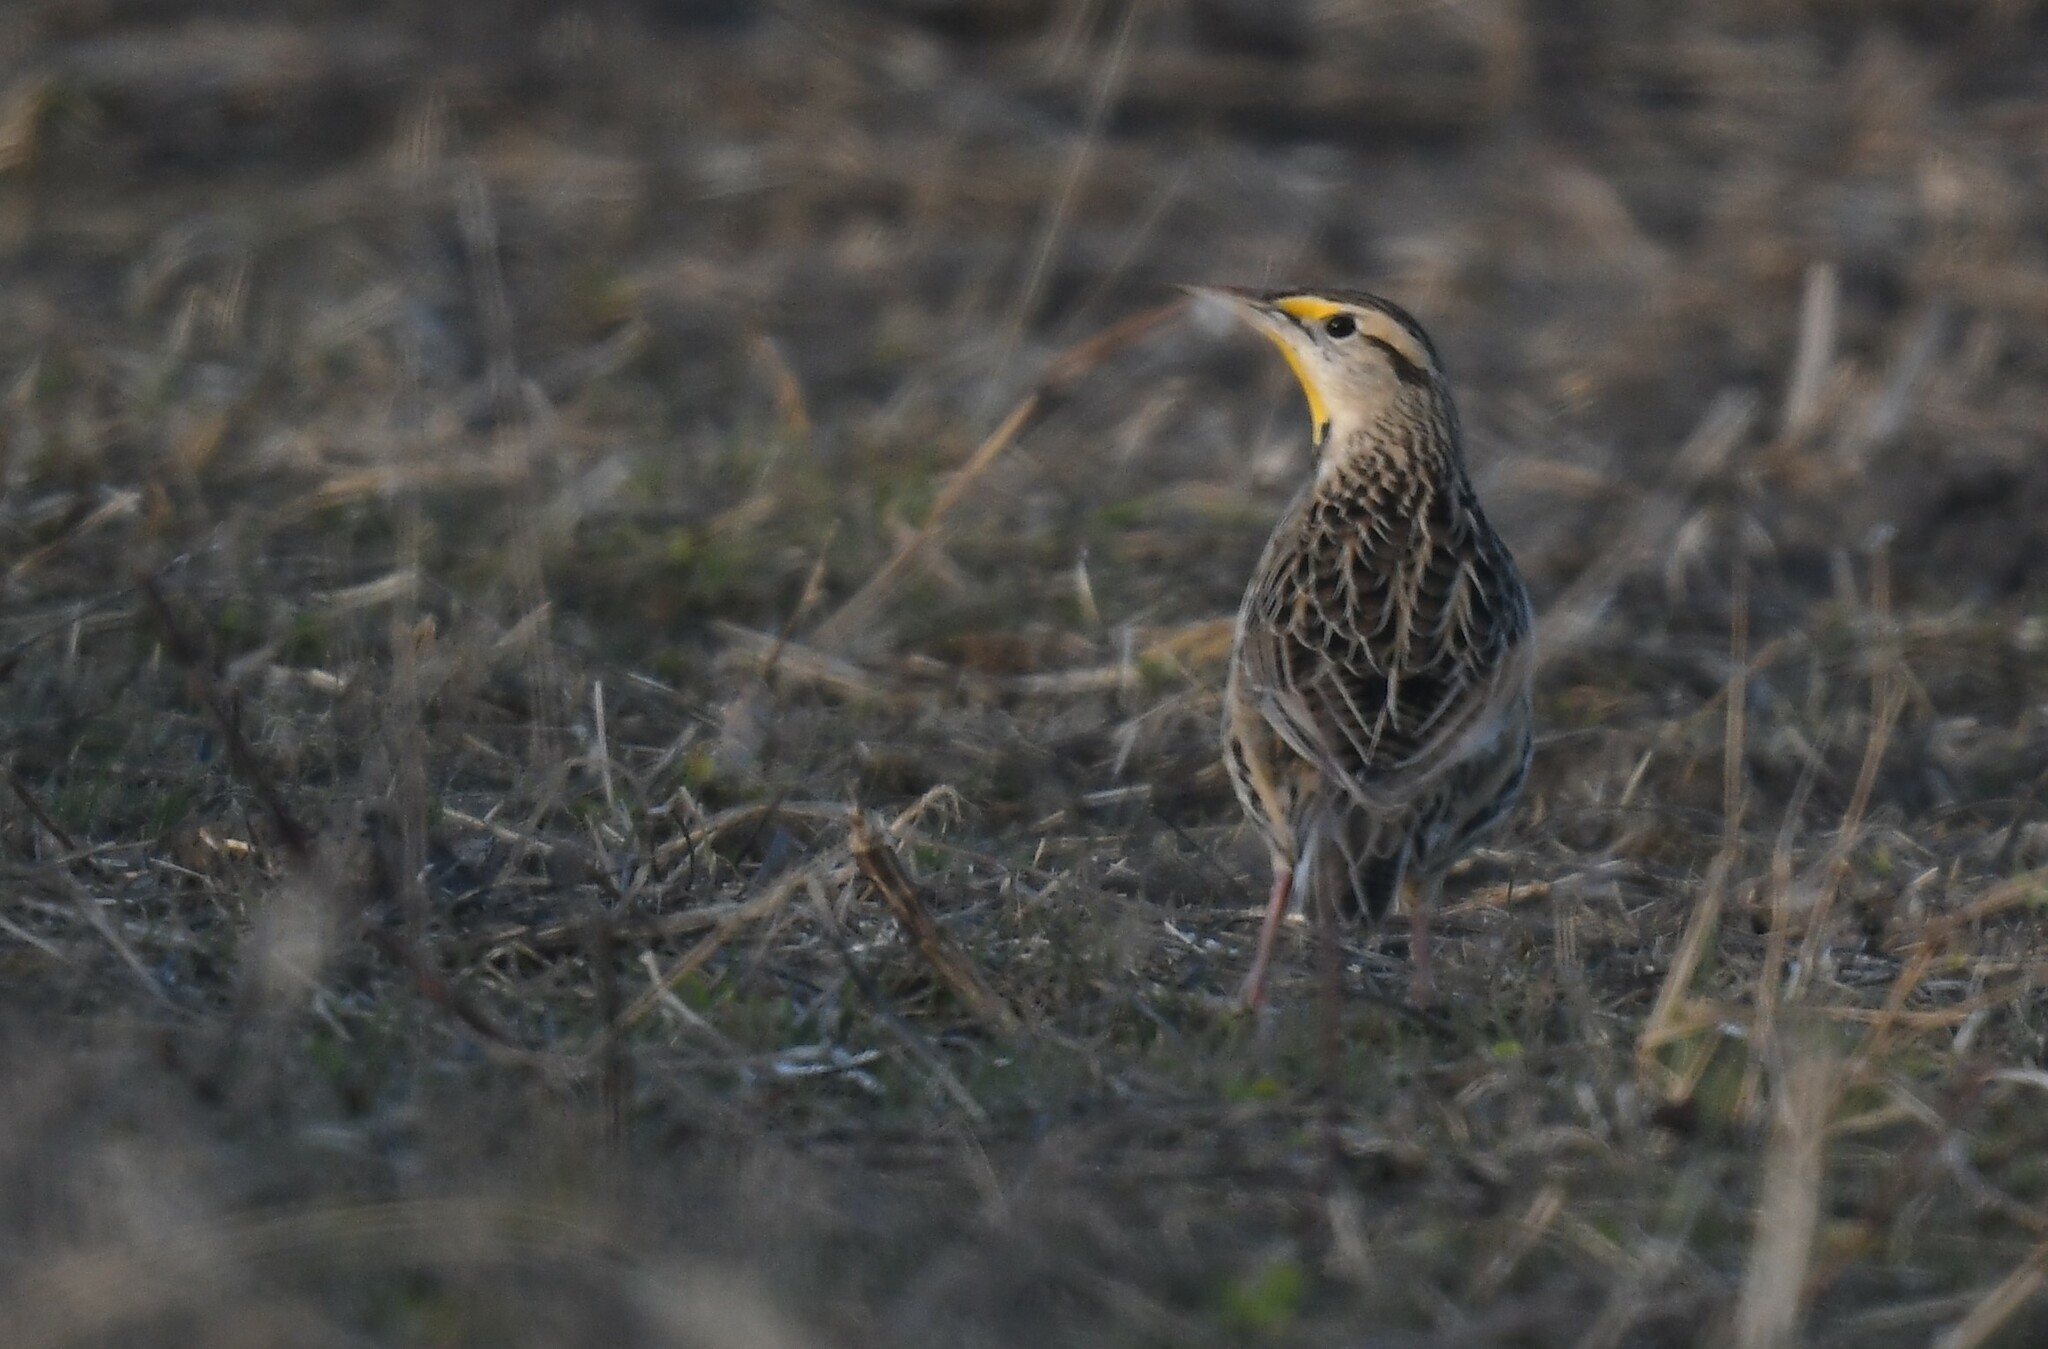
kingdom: Animalia
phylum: Chordata
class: Aves
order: Passeriformes
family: Icteridae
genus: Sturnella
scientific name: Sturnella magna
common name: Eastern meadowlark
